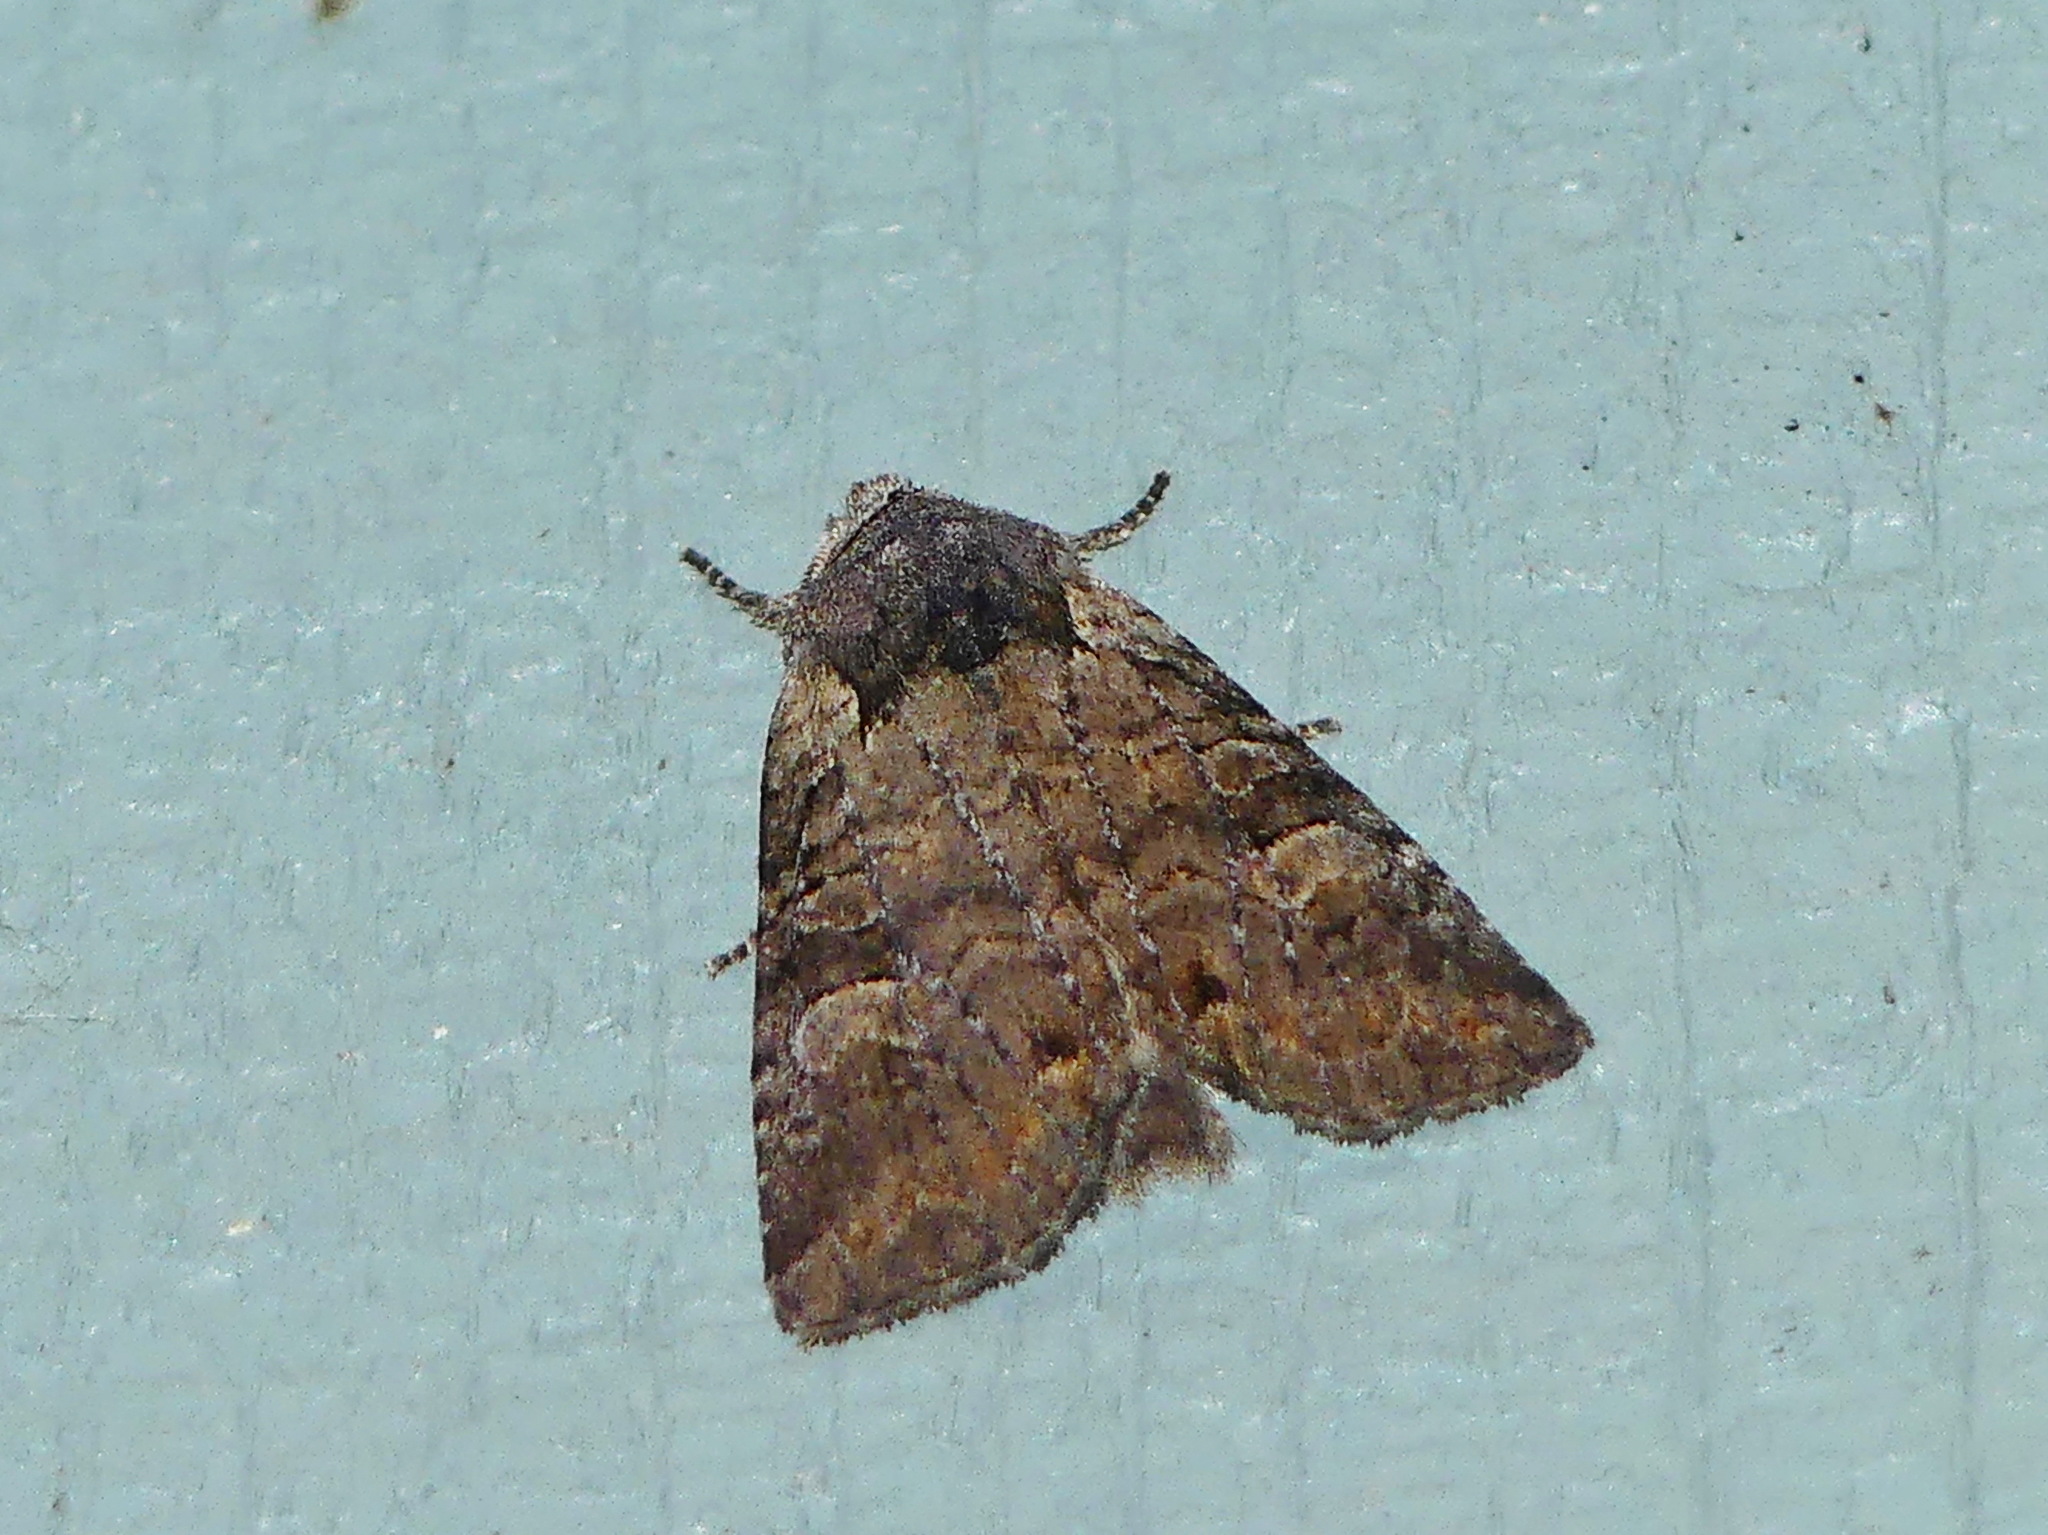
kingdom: Animalia
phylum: Arthropoda
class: Insecta
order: Lepidoptera
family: Noctuidae
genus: Brachylomia
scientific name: Brachylomia algens
